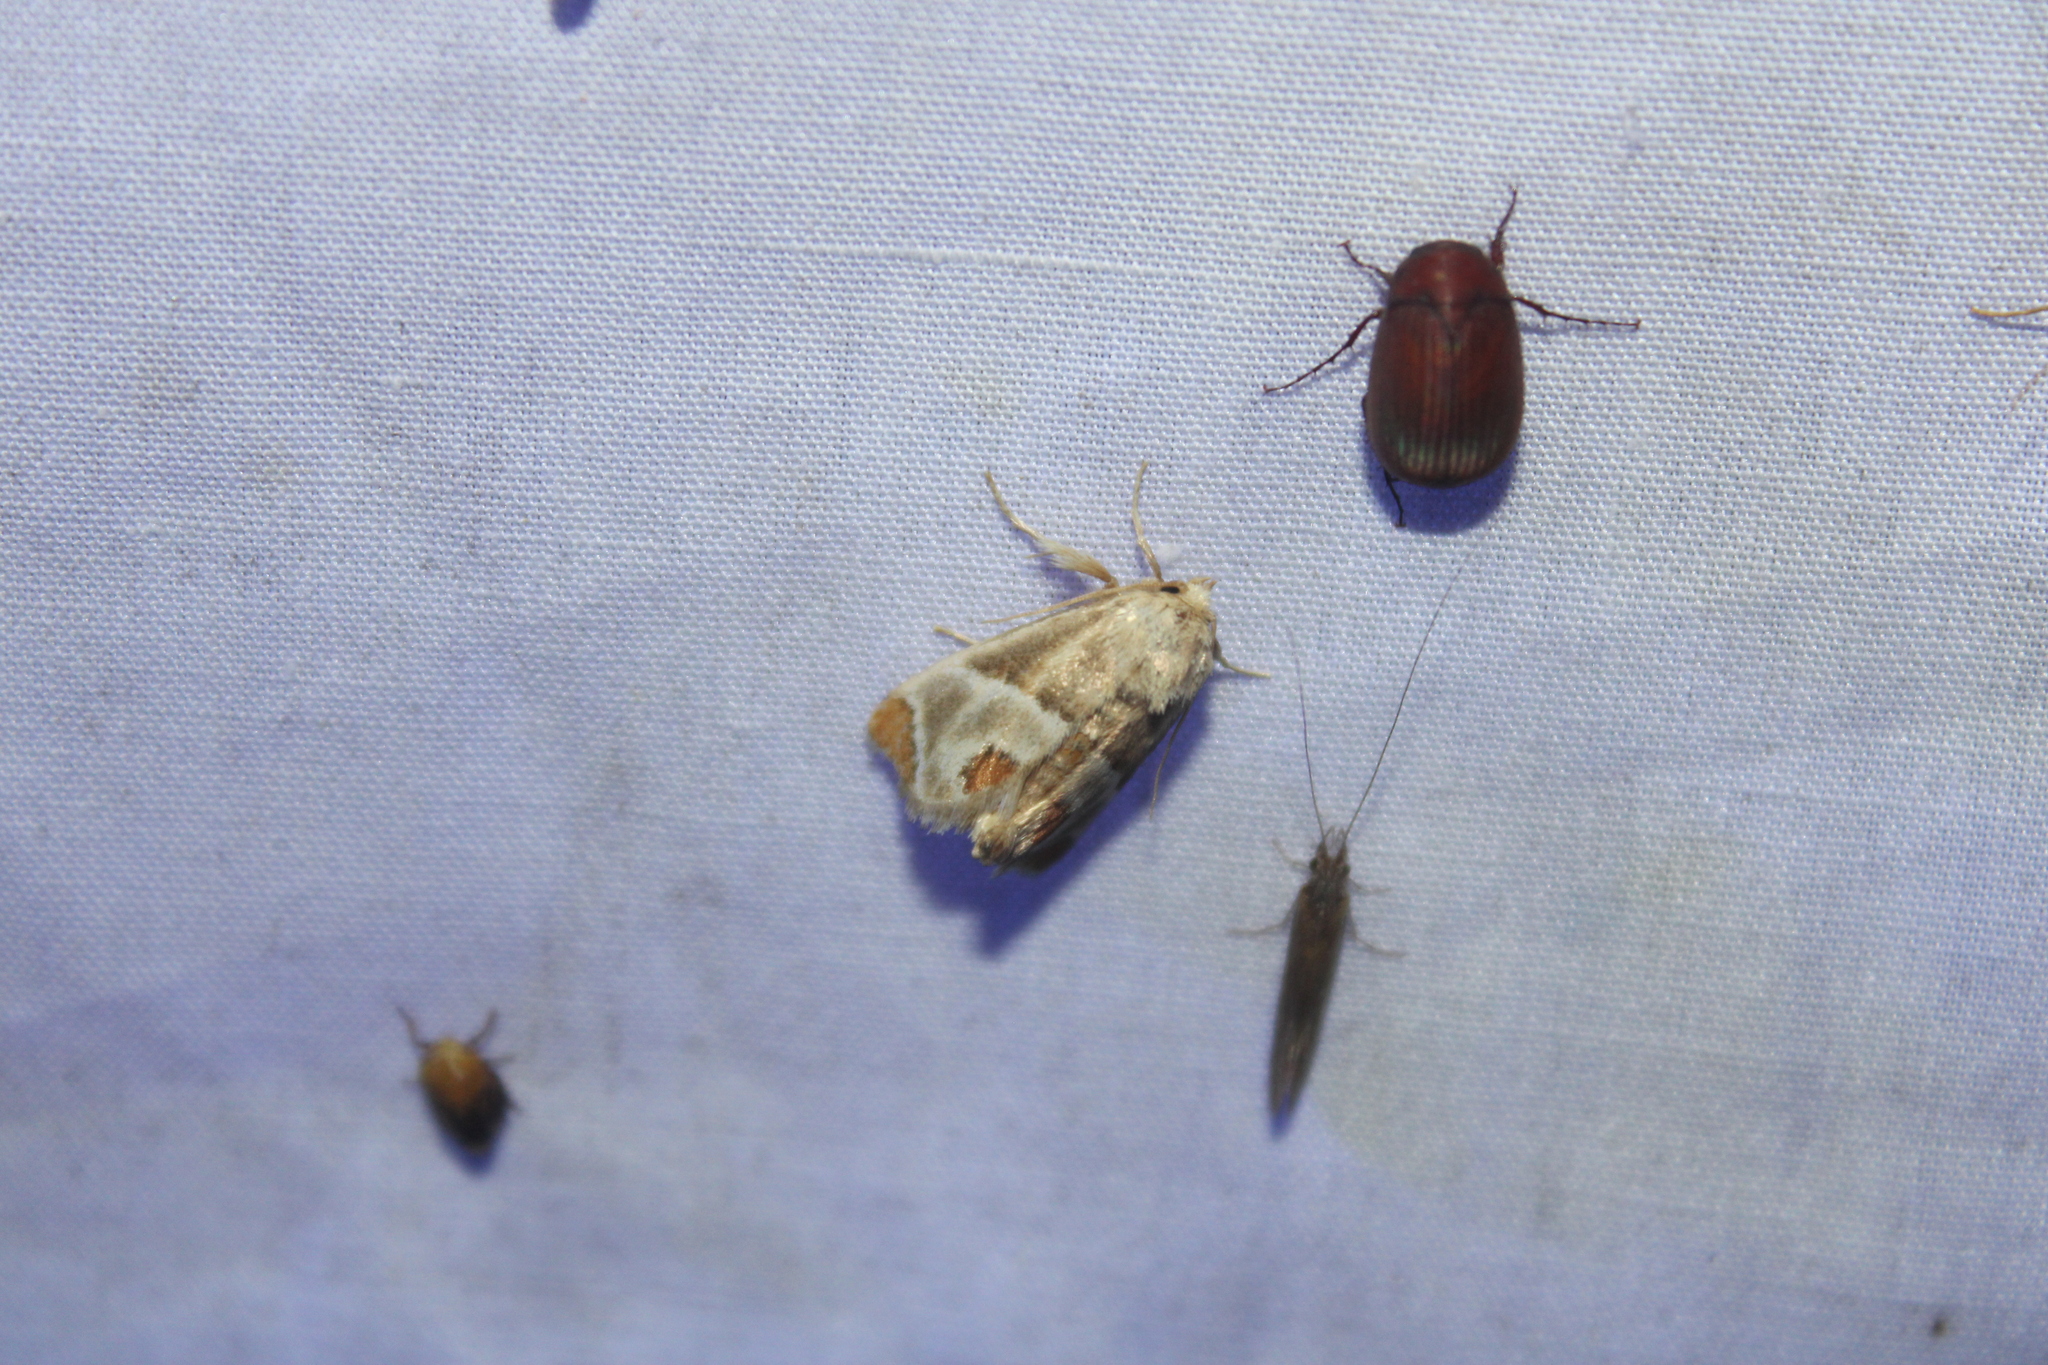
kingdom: Animalia
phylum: Arthropoda
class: Insecta
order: Lepidoptera
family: Limacodidae
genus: Apoda
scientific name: Apoda biguttata
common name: Shagreened slug moth
